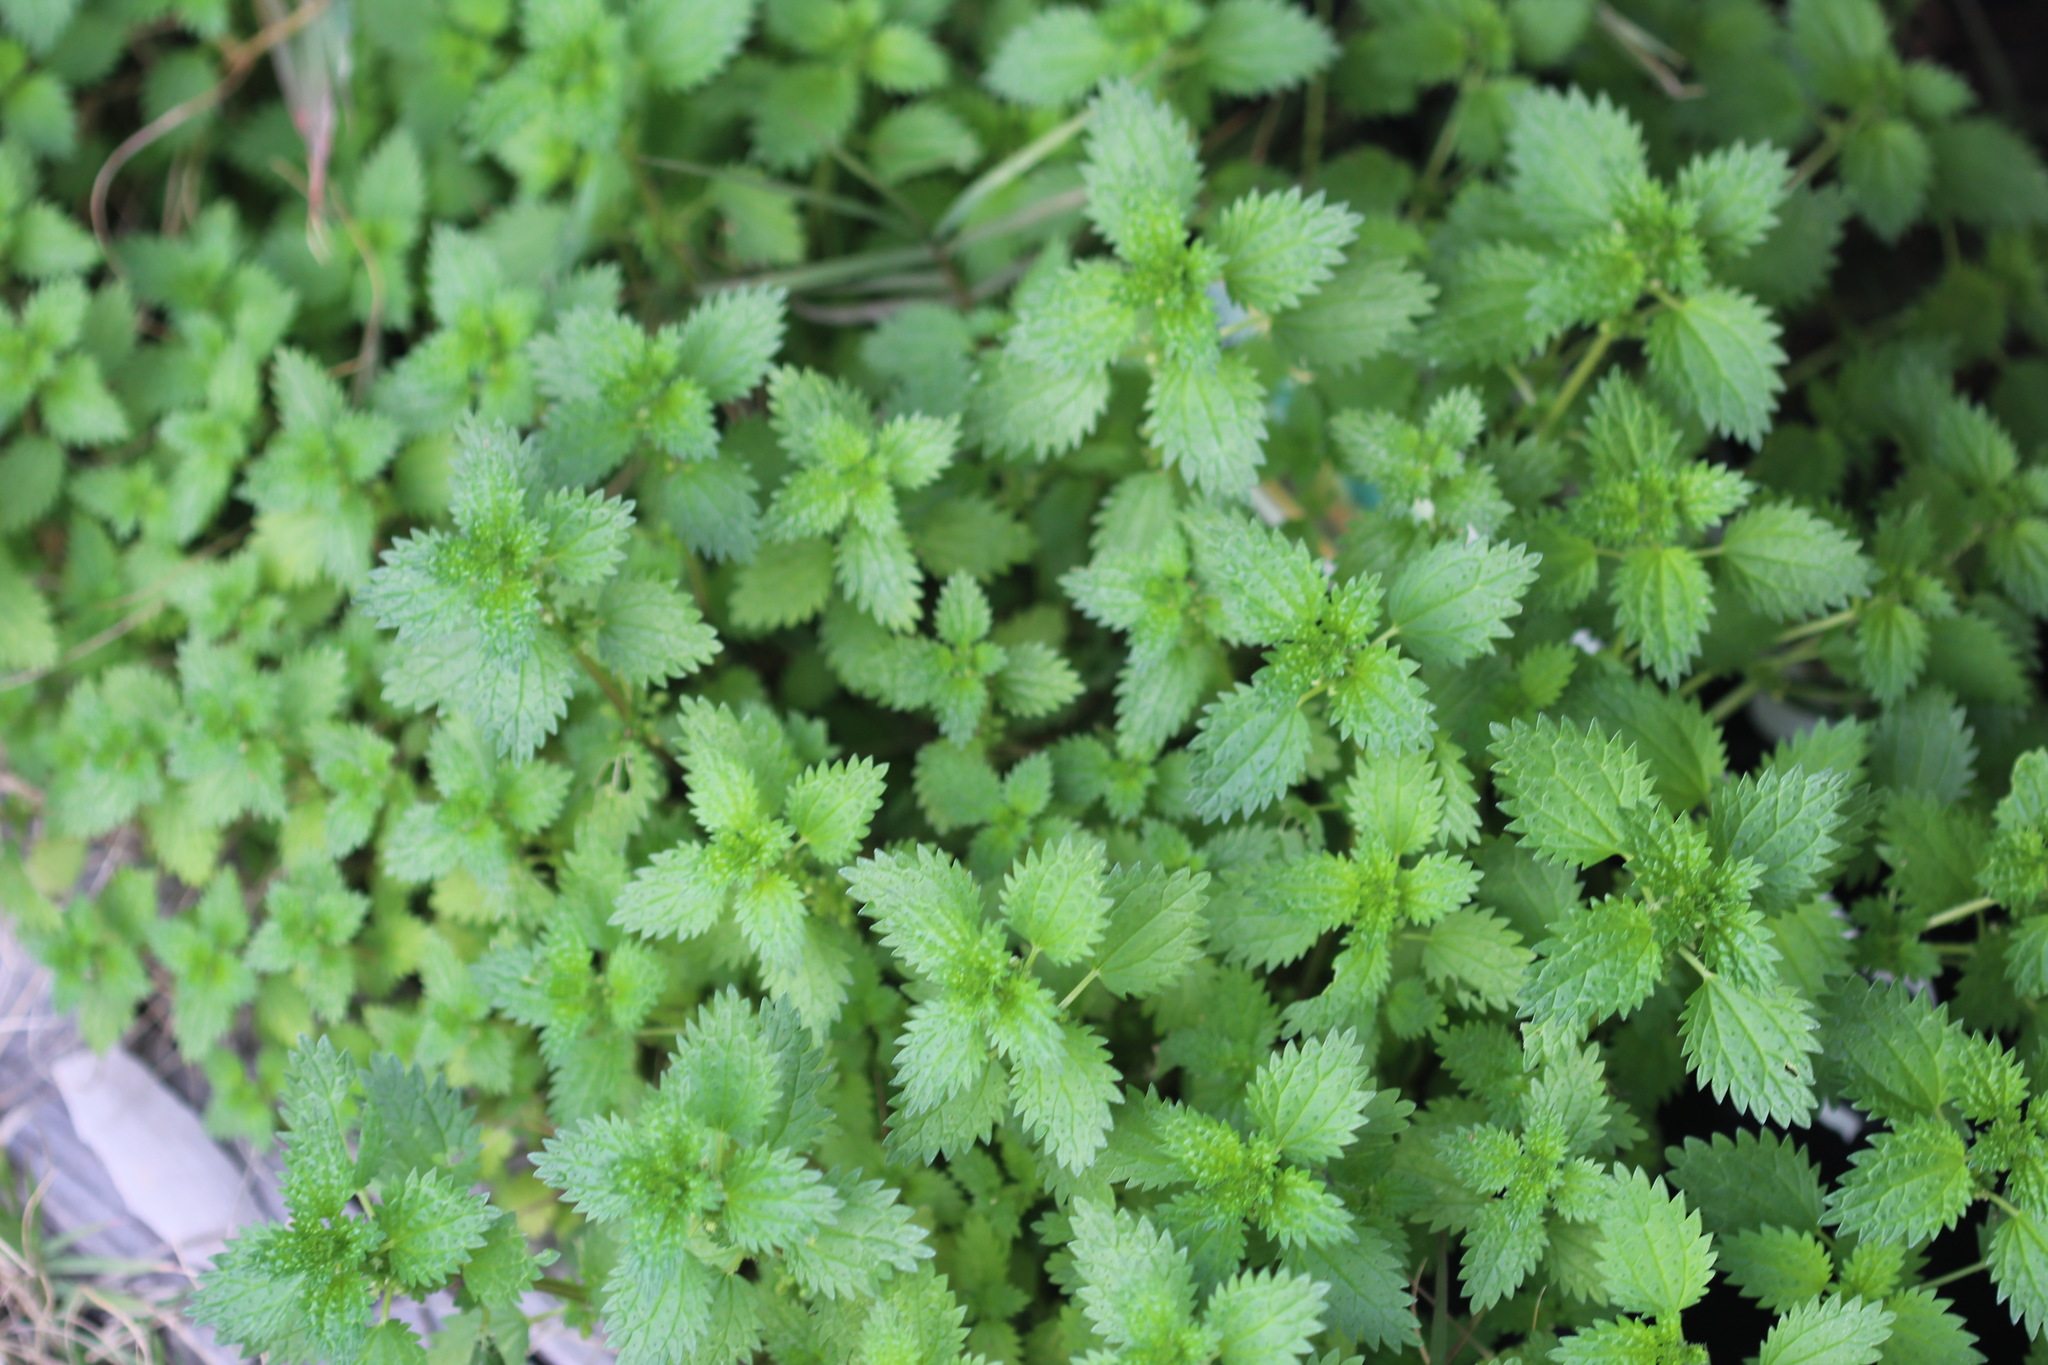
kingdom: Plantae
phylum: Tracheophyta
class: Magnoliopsida
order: Rosales
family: Urticaceae
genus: Urtica
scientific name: Urtica urens
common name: Dwarf nettle
